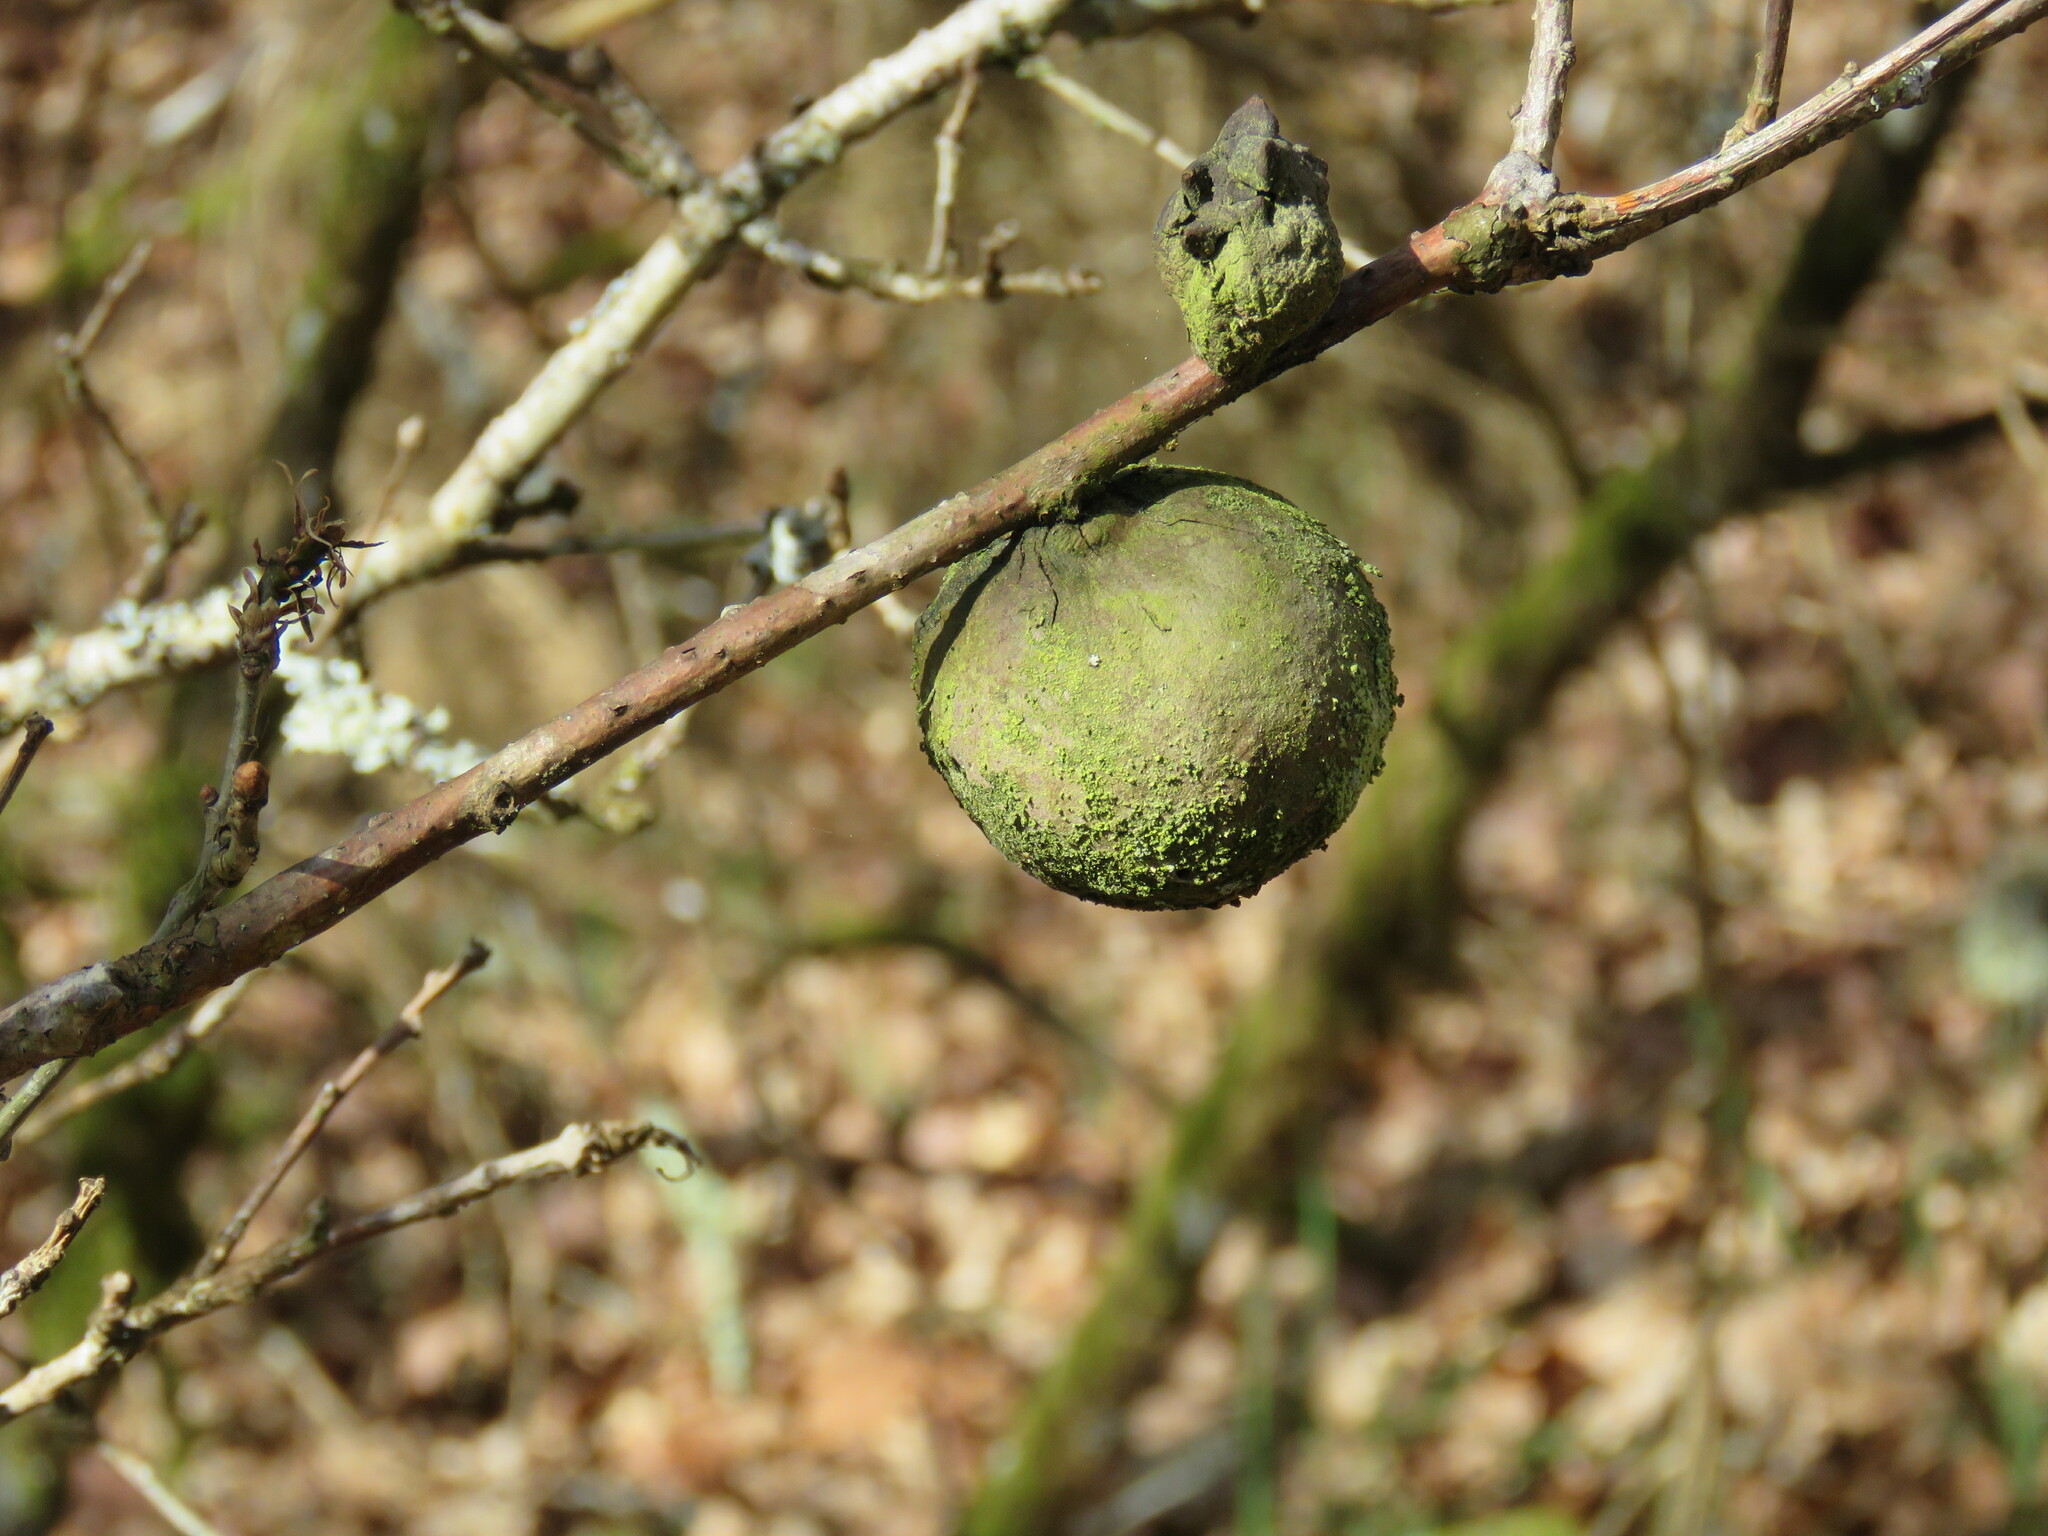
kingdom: Animalia
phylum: Arthropoda
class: Insecta
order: Hymenoptera
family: Cynipidae
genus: Andricus
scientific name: Andricus quercustozae
